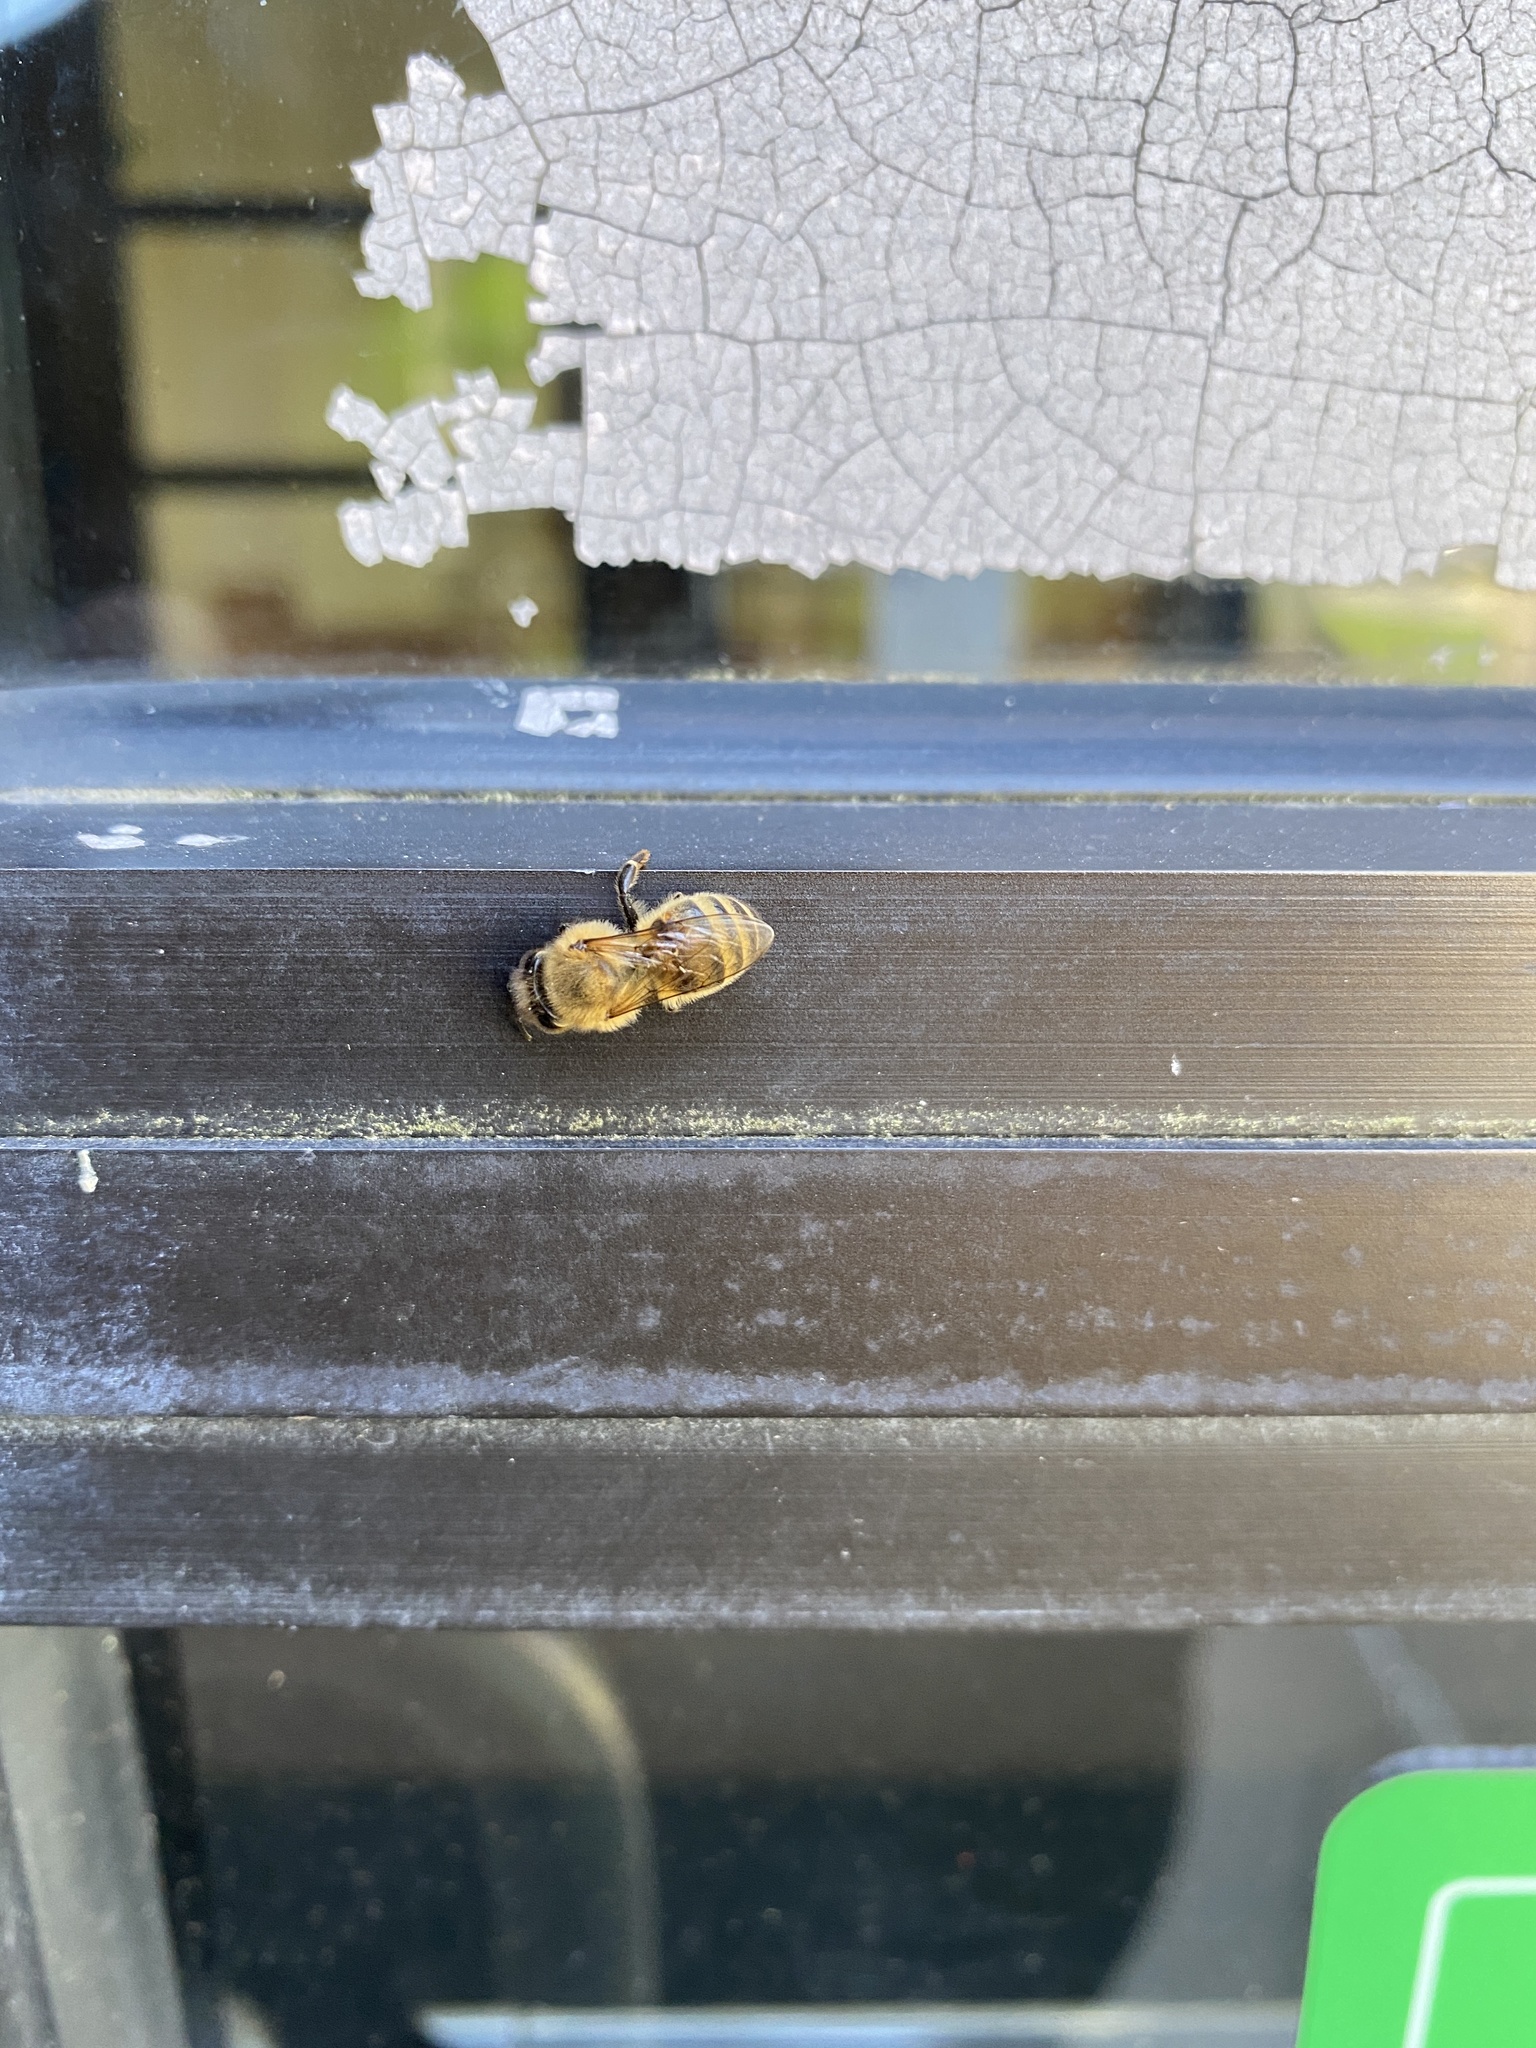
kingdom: Animalia
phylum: Arthropoda
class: Insecta
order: Hymenoptera
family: Apidae
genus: Apis
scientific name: Apis mellifera
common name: Honey bee
